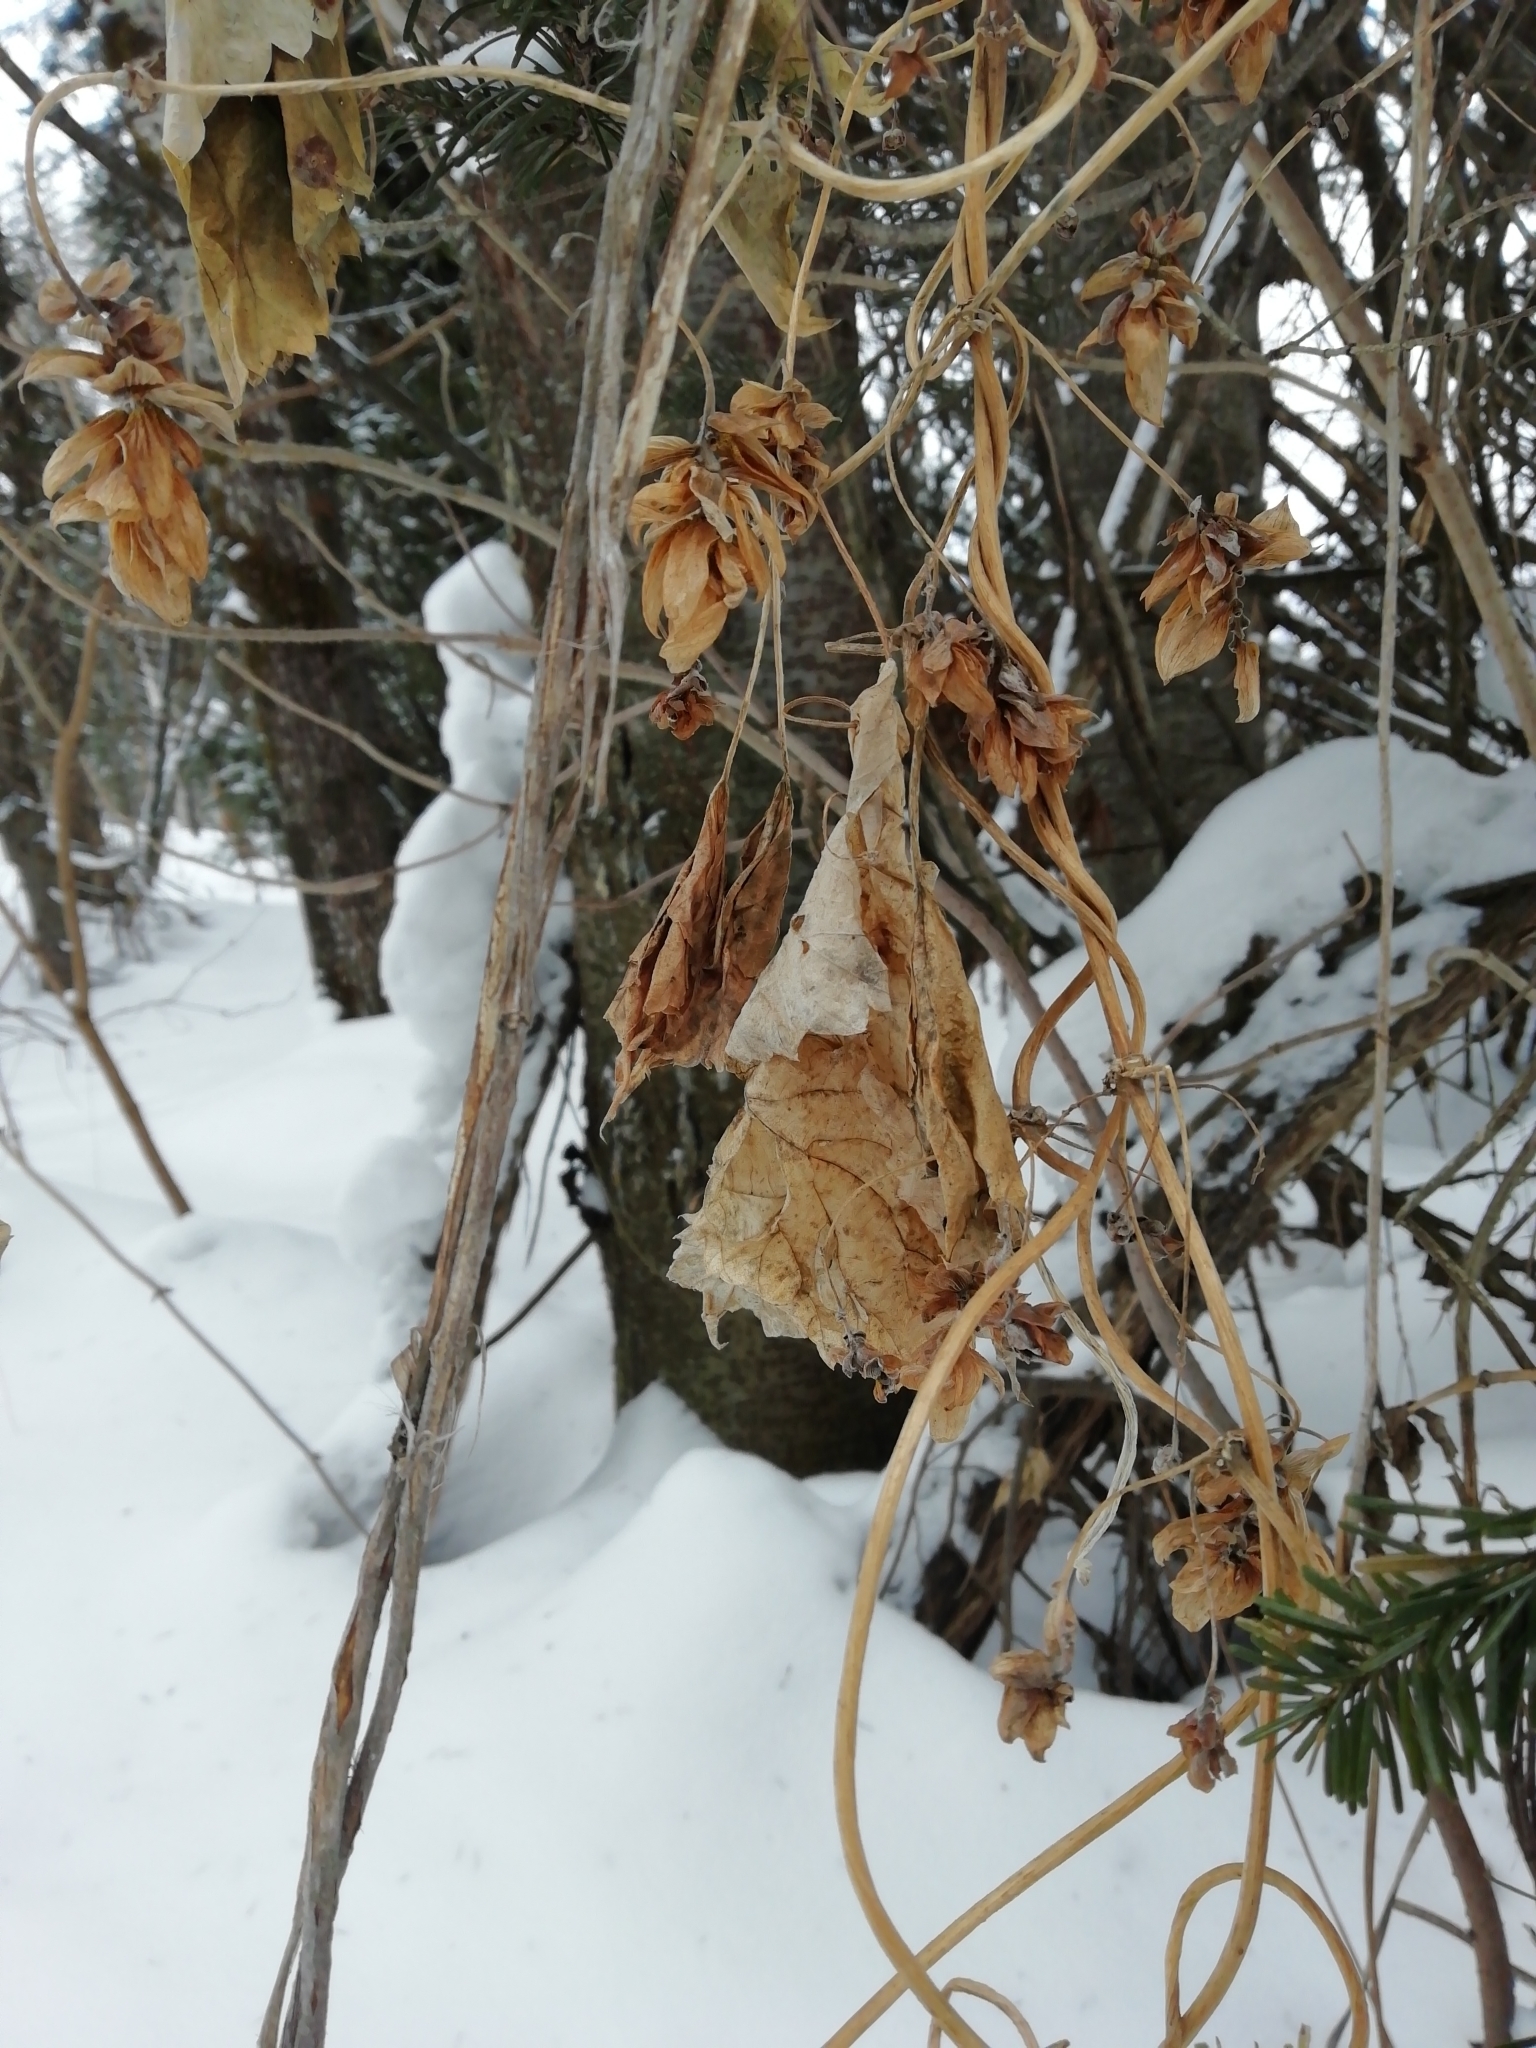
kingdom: Plantae
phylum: Tracheophyta
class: Magnoliopsida
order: Rosales
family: Cannabaceae
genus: Humulus
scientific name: Humulus lupulus
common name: Hop
